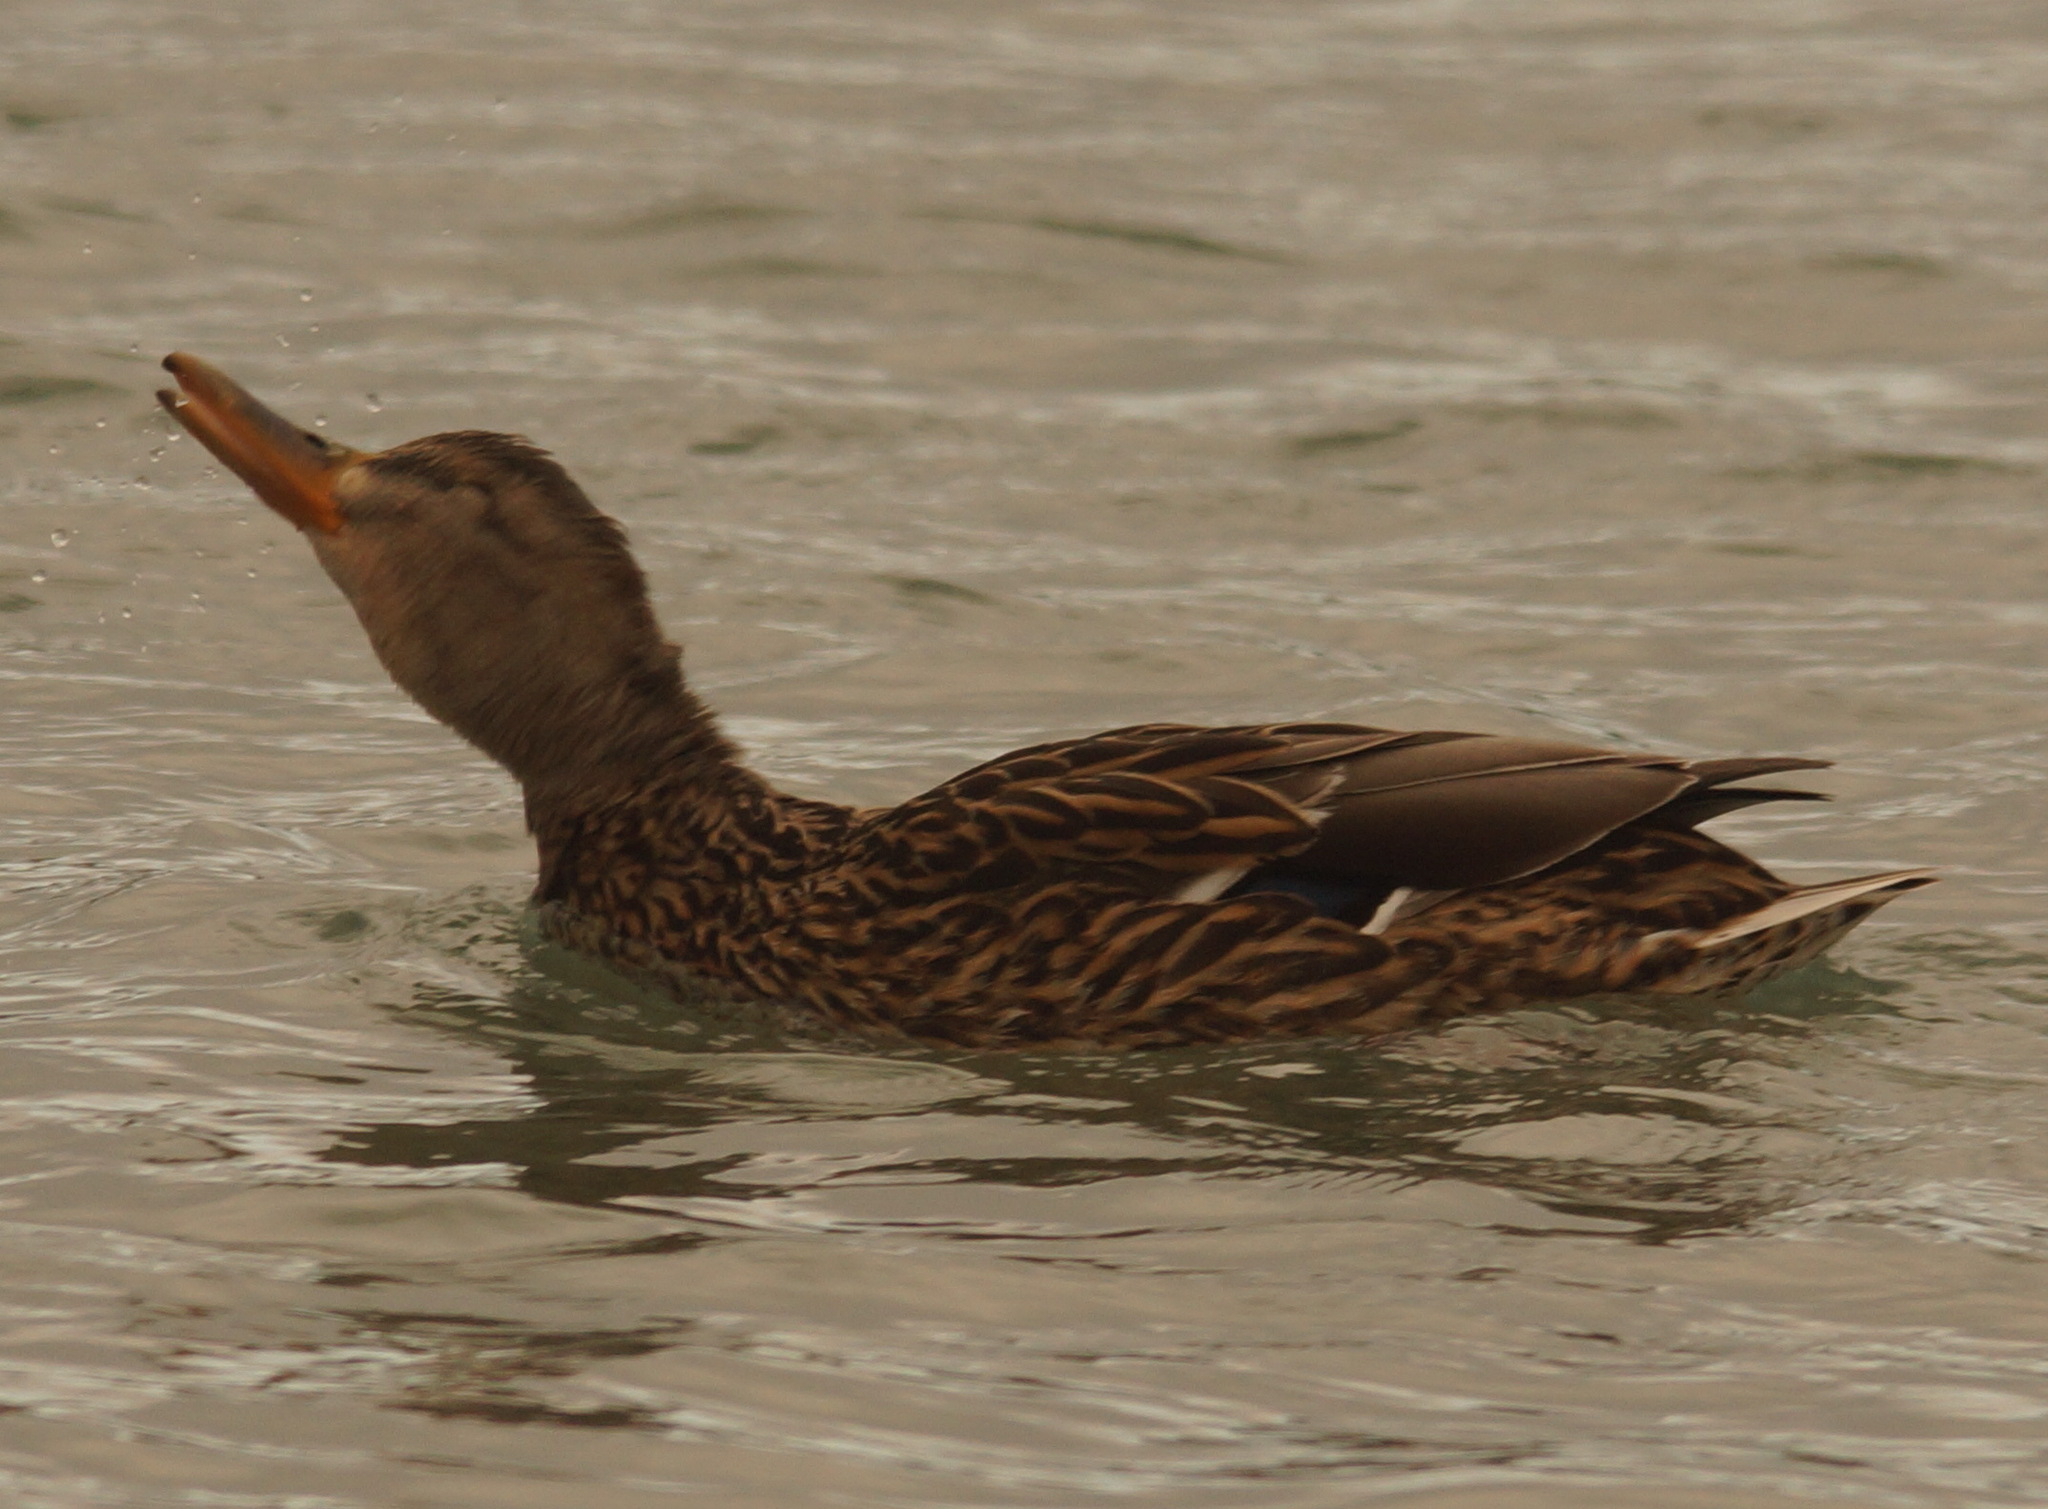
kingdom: Animalia
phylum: Chordata
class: Aves
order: Anseriformes
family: Anatidae
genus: Anas
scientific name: Anas platyrhynchos
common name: Mallard
